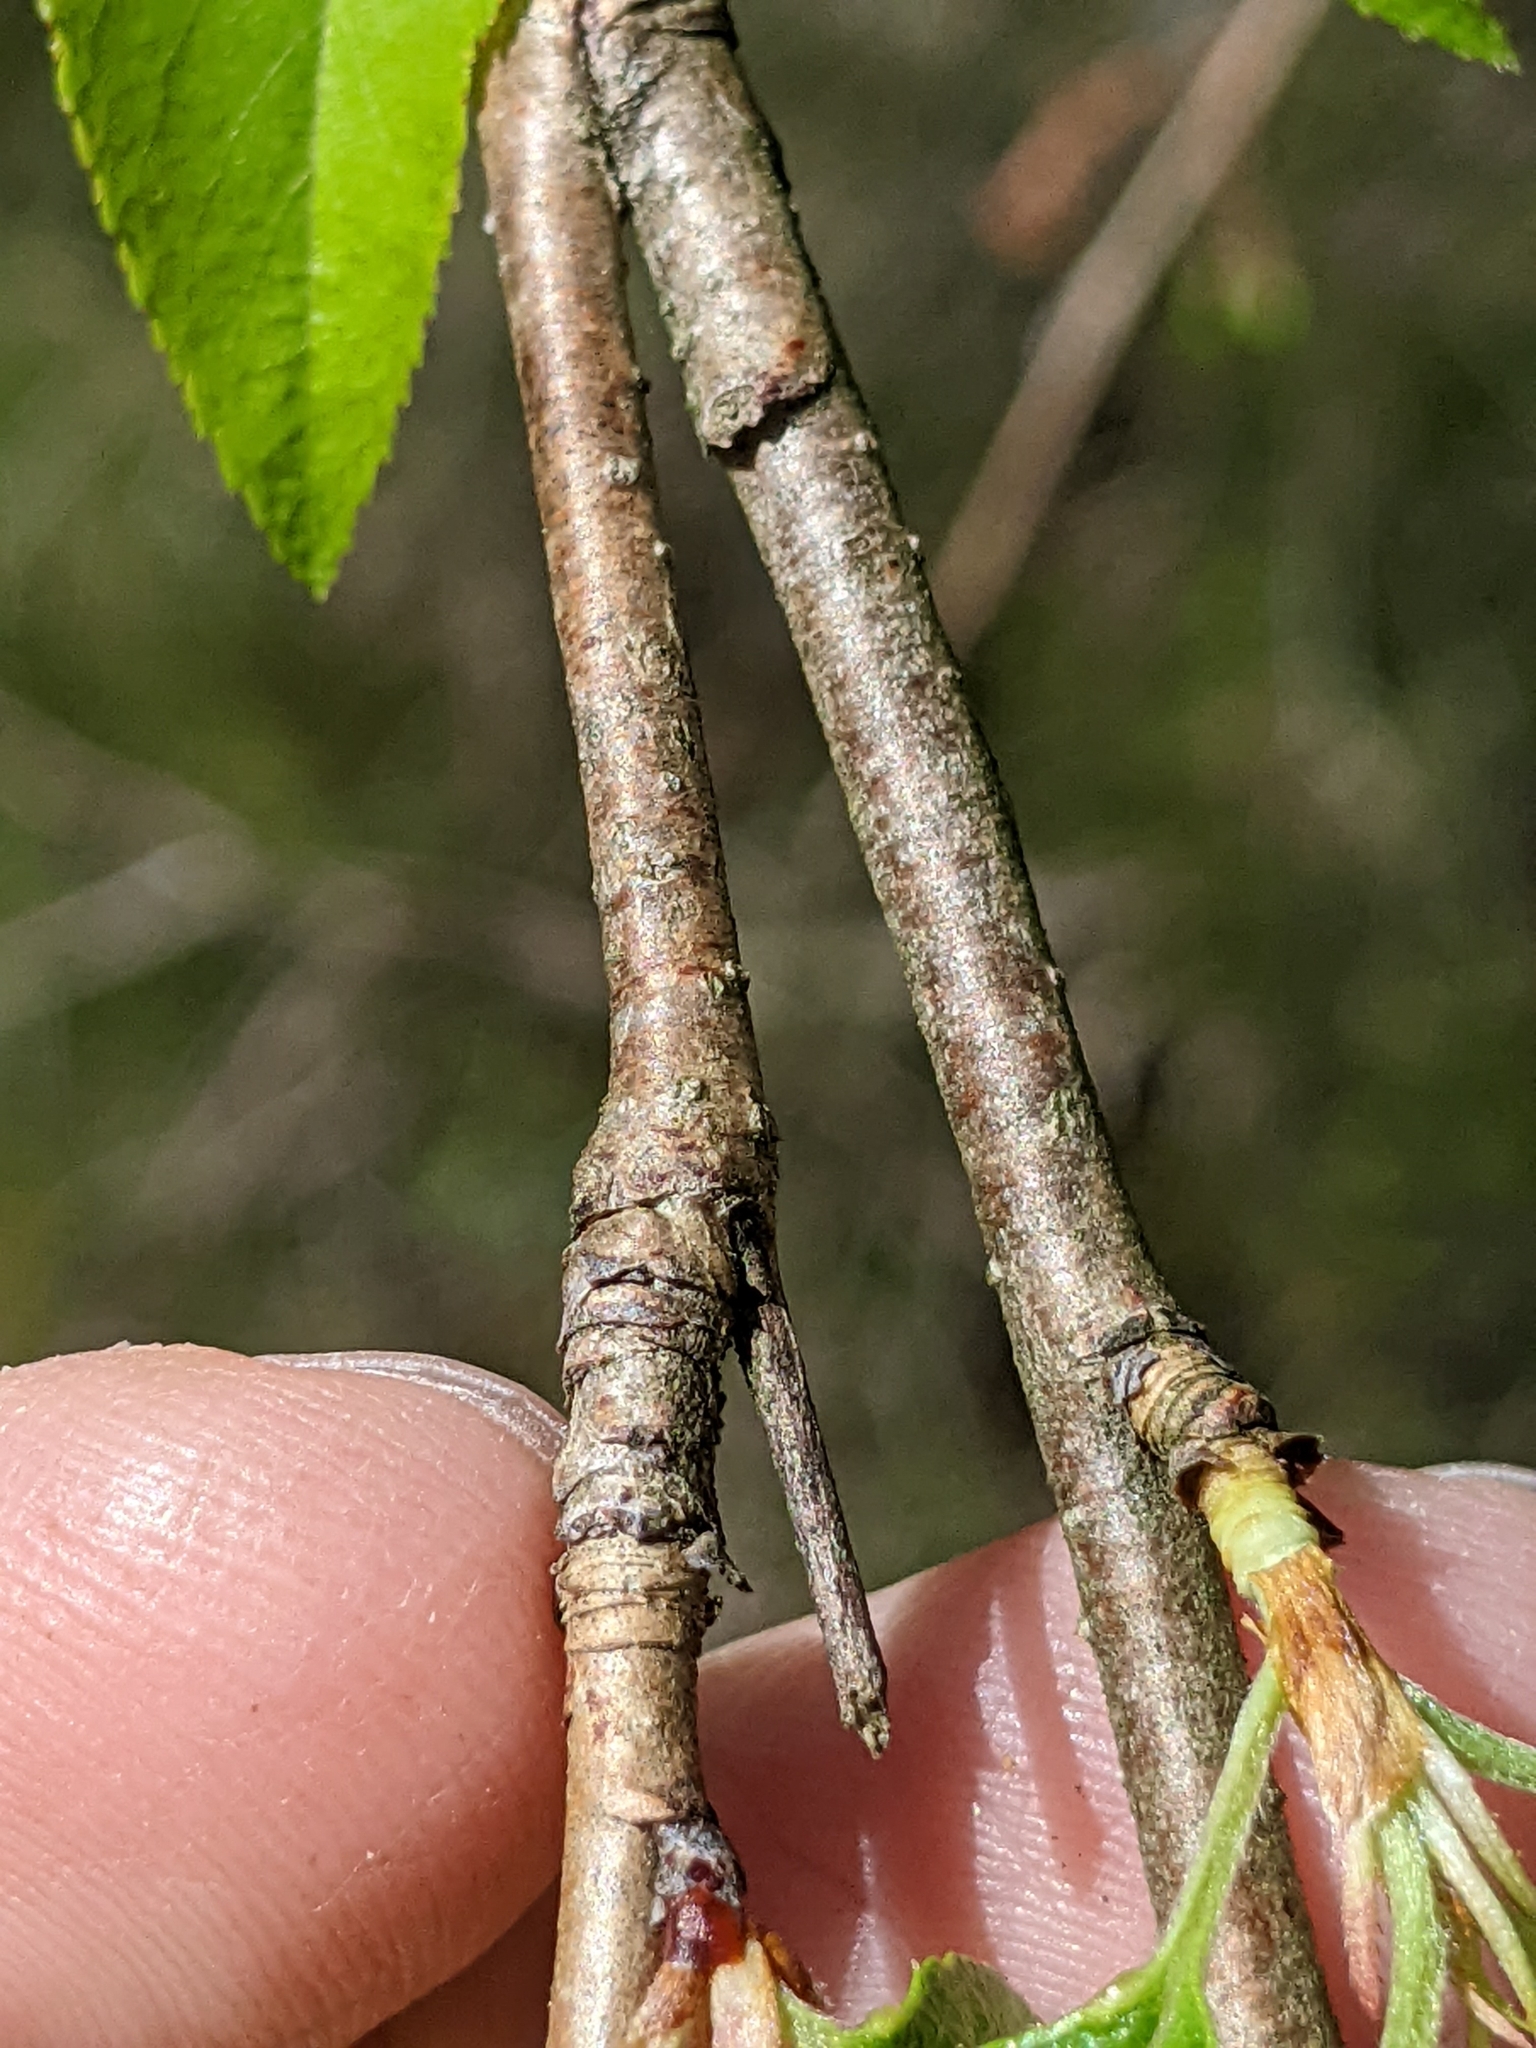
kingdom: Plantae
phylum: Tracheophyta
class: Magnoliopsida
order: Rosales
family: Rosaceae
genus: Prunus
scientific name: Prunus subhirtella
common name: Winter-flowering cherry
